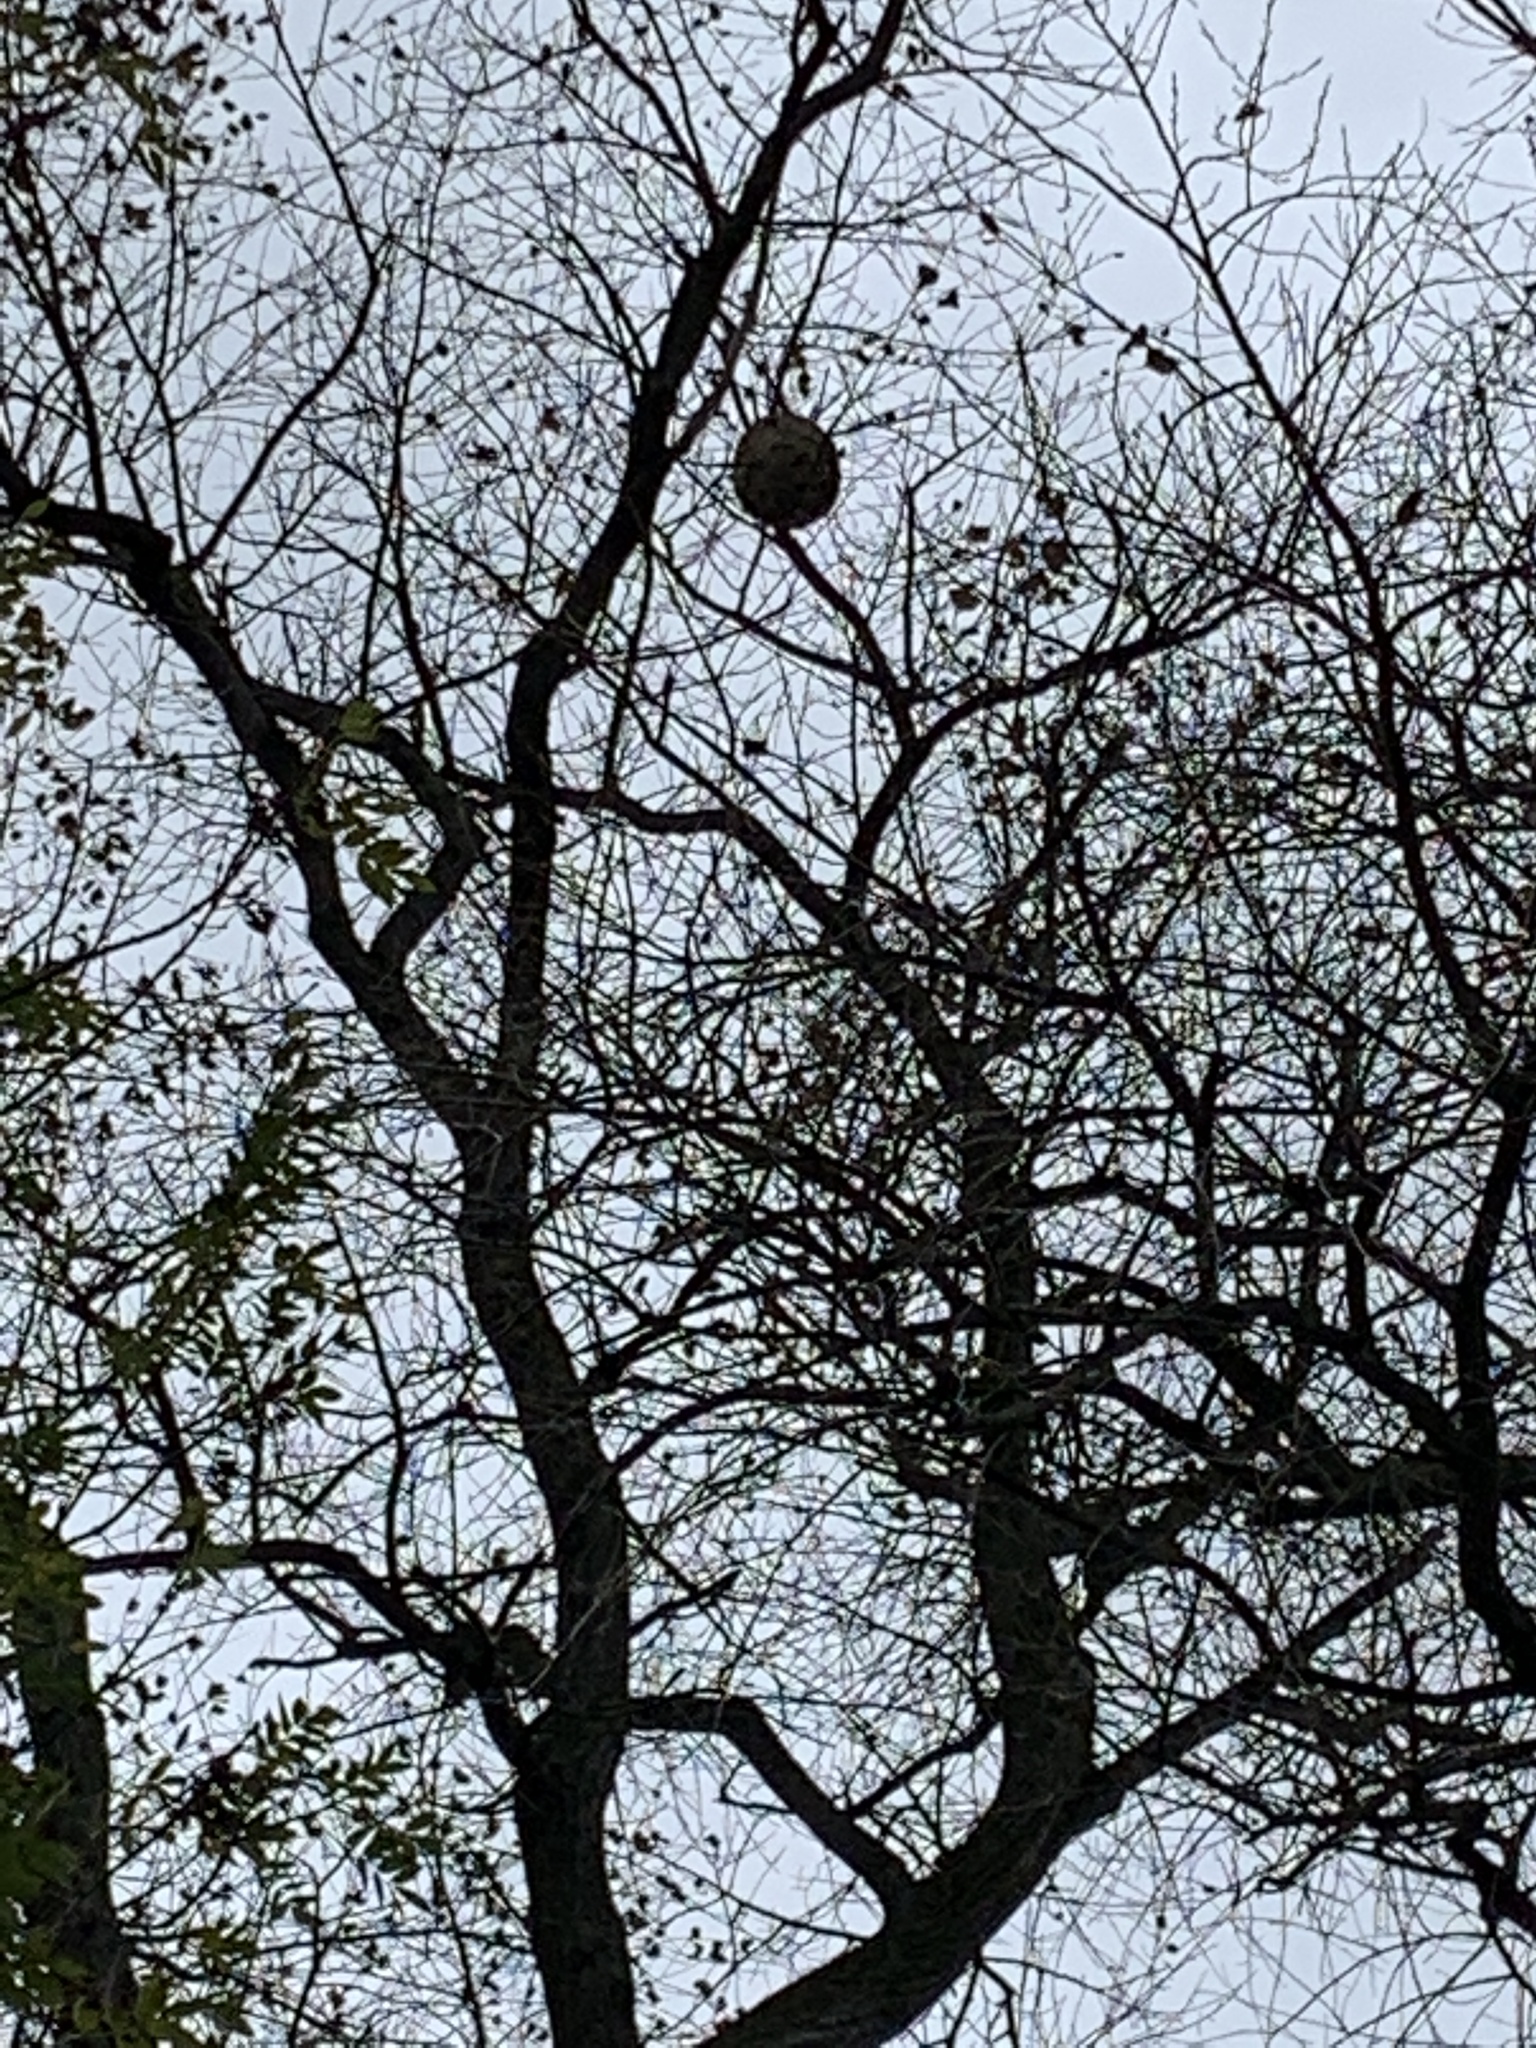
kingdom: Animalia
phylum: Arthropoda
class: Insecta
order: Hymenoptera
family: Vespidae
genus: Vespa
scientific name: Vespa velutina
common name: Asian hornet
